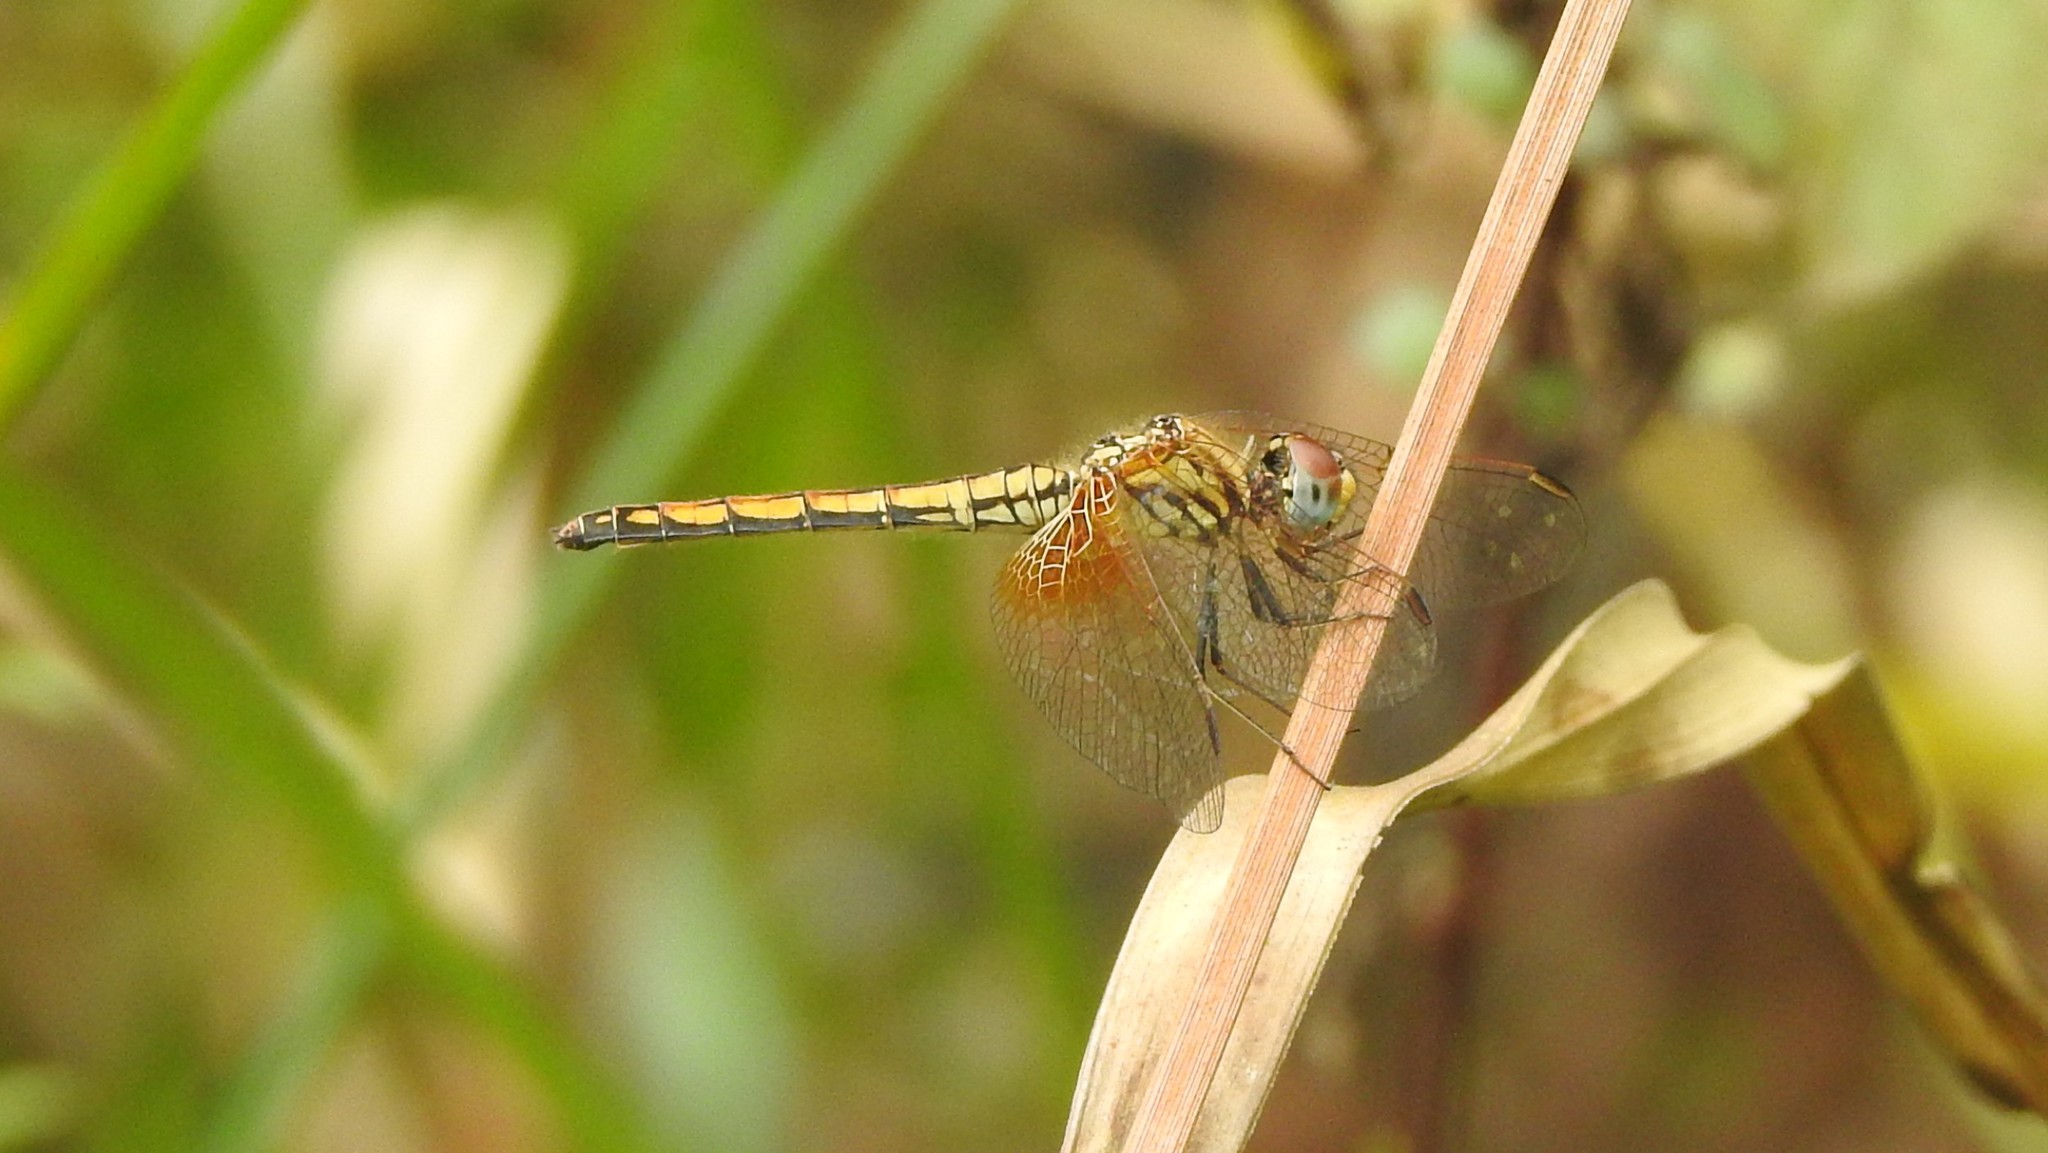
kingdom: Animalia
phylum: Arthropoda
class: Insecta
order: Odonata
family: Libellulidae
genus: Trithemis
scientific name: Trithemis aurora
